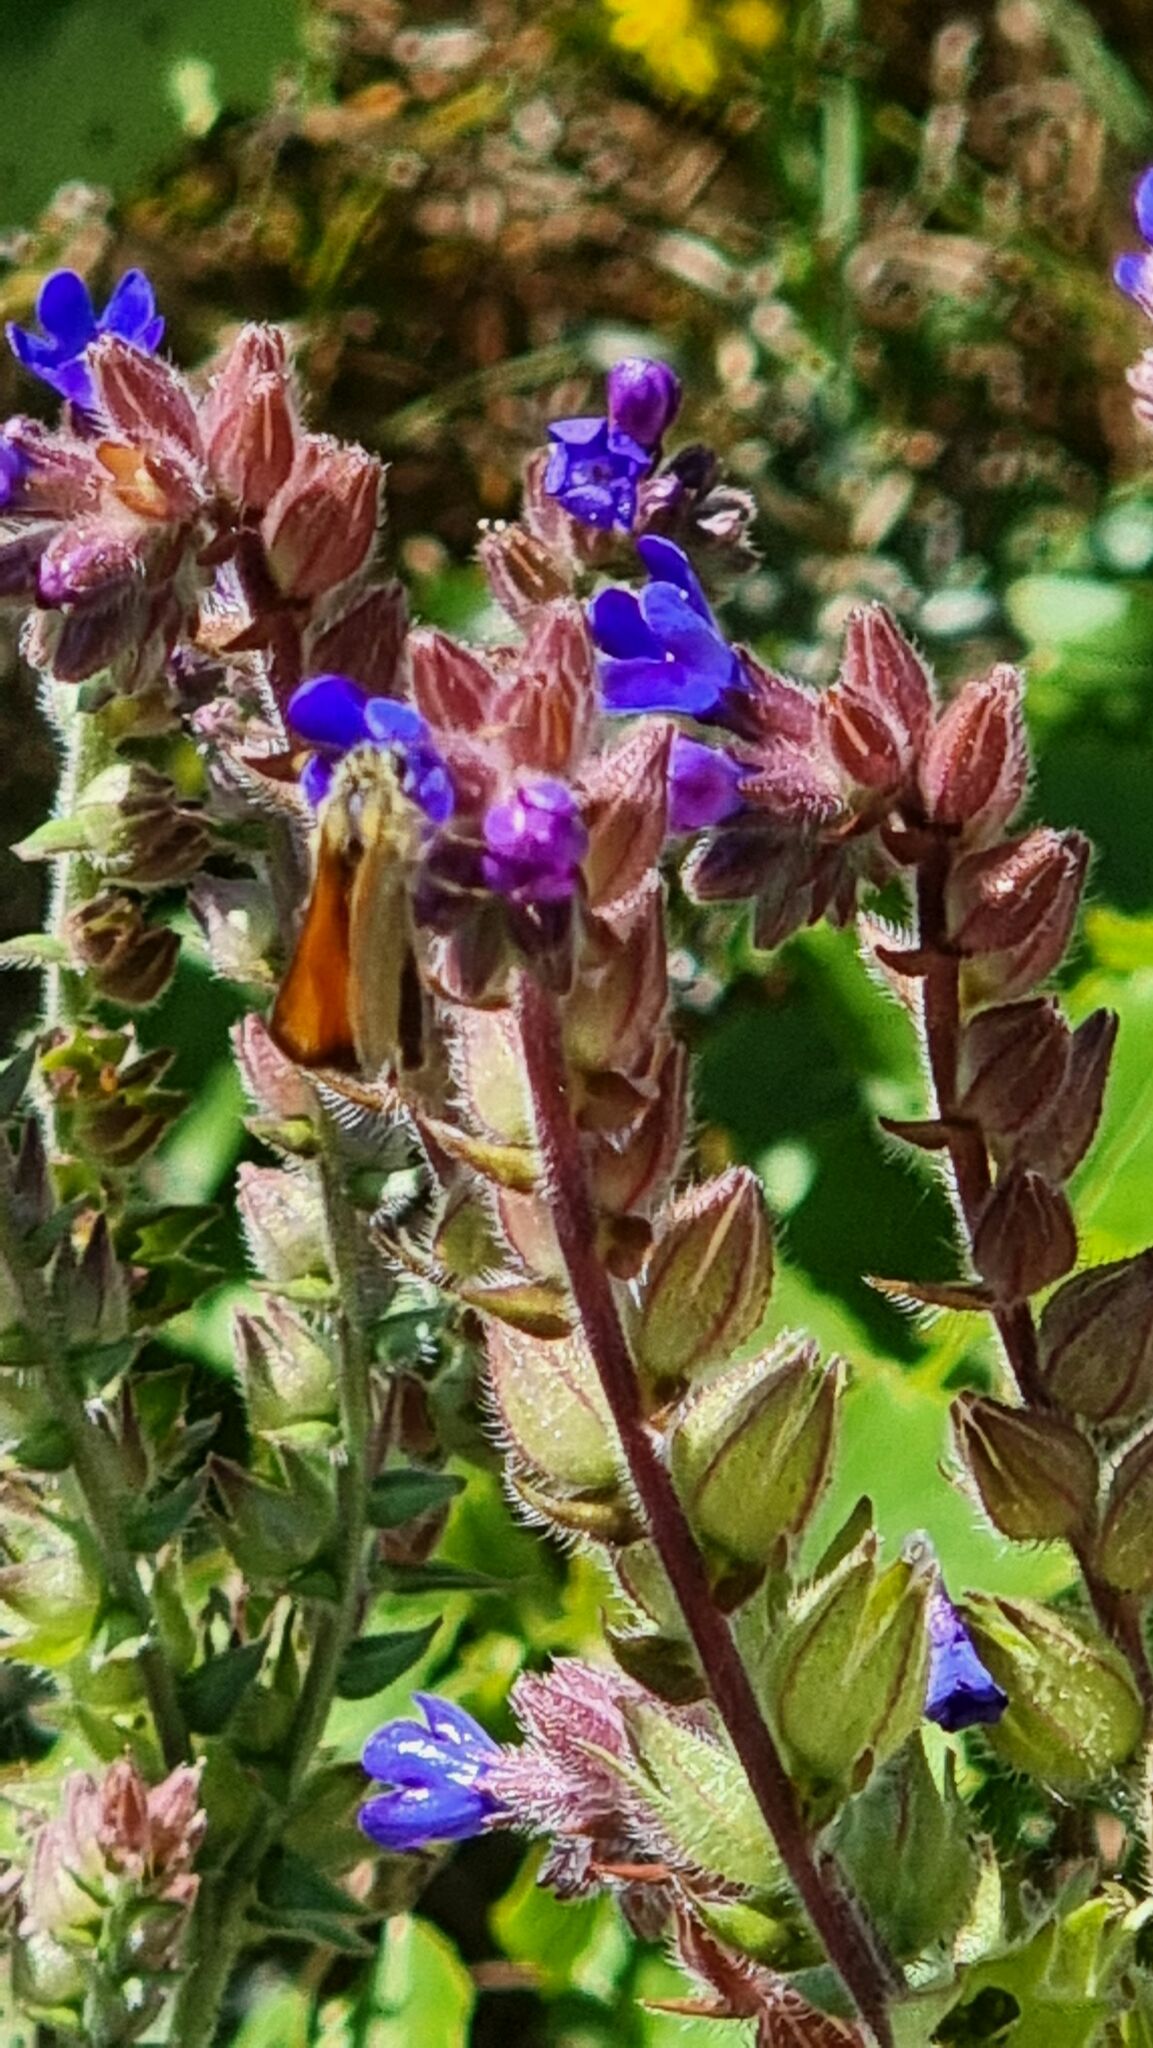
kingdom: Plantae
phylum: Tracheophyta
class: Magnoliopsida
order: Boraginales
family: Boraginaceae
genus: Anchusa
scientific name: Anchusa officinalis
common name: Alkanet
